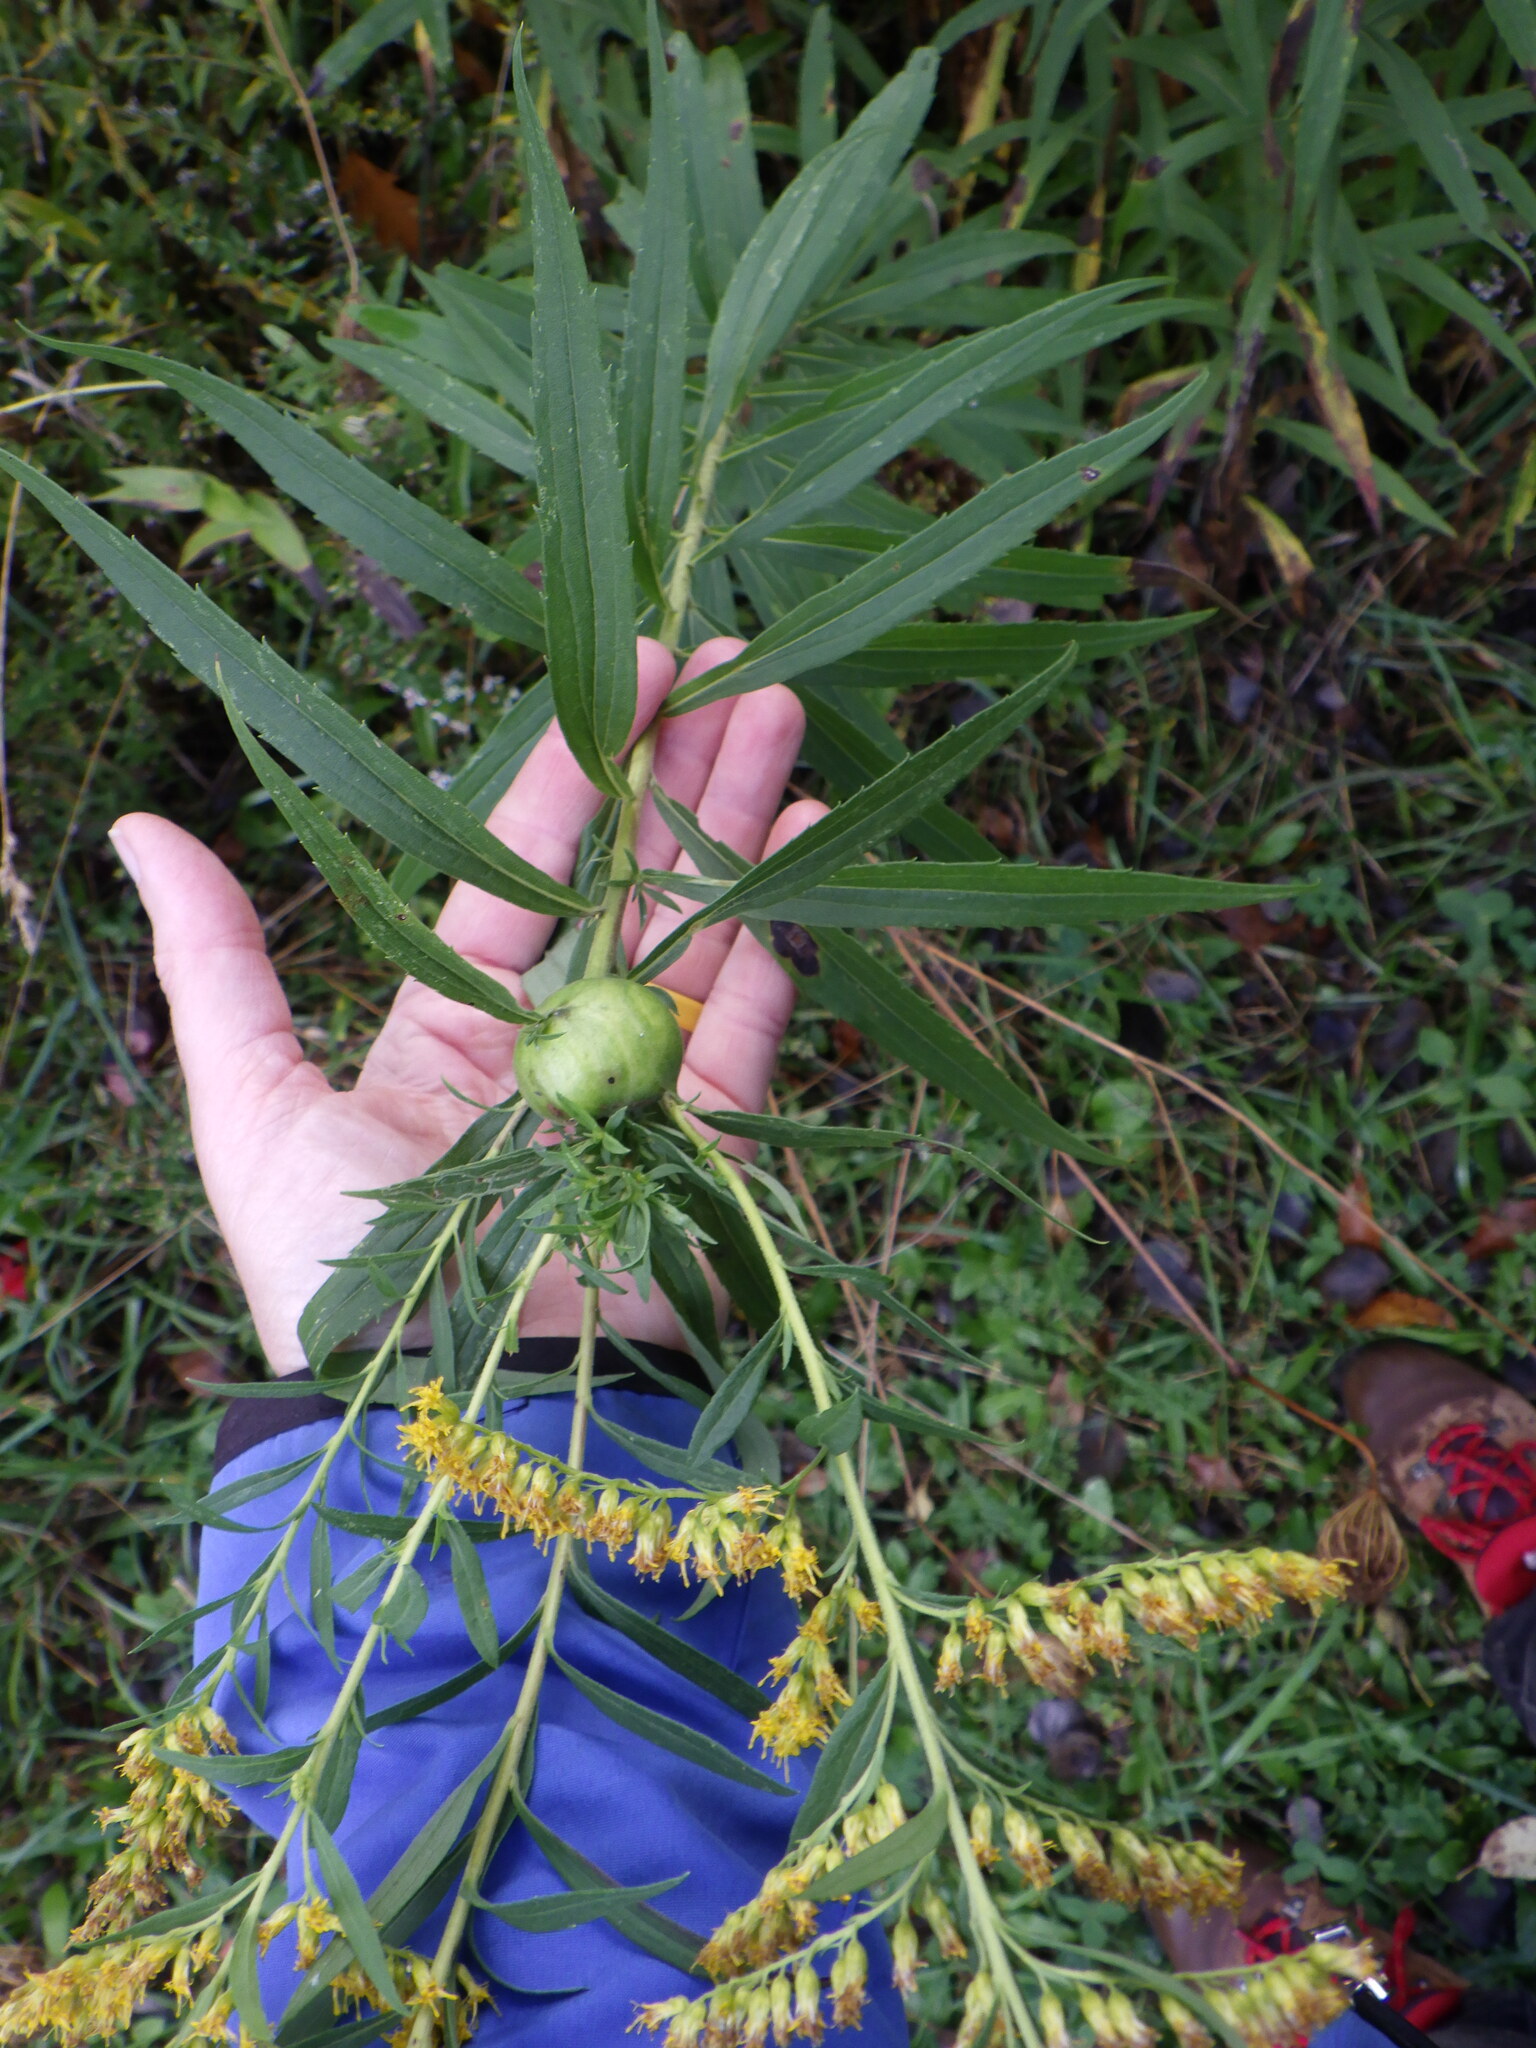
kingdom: Animalia
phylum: Arthropoda
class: Insecta
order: Diptera
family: Tephritidae
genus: Eurosta
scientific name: Eurosta solidaginis
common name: Goldenrod gall fly
